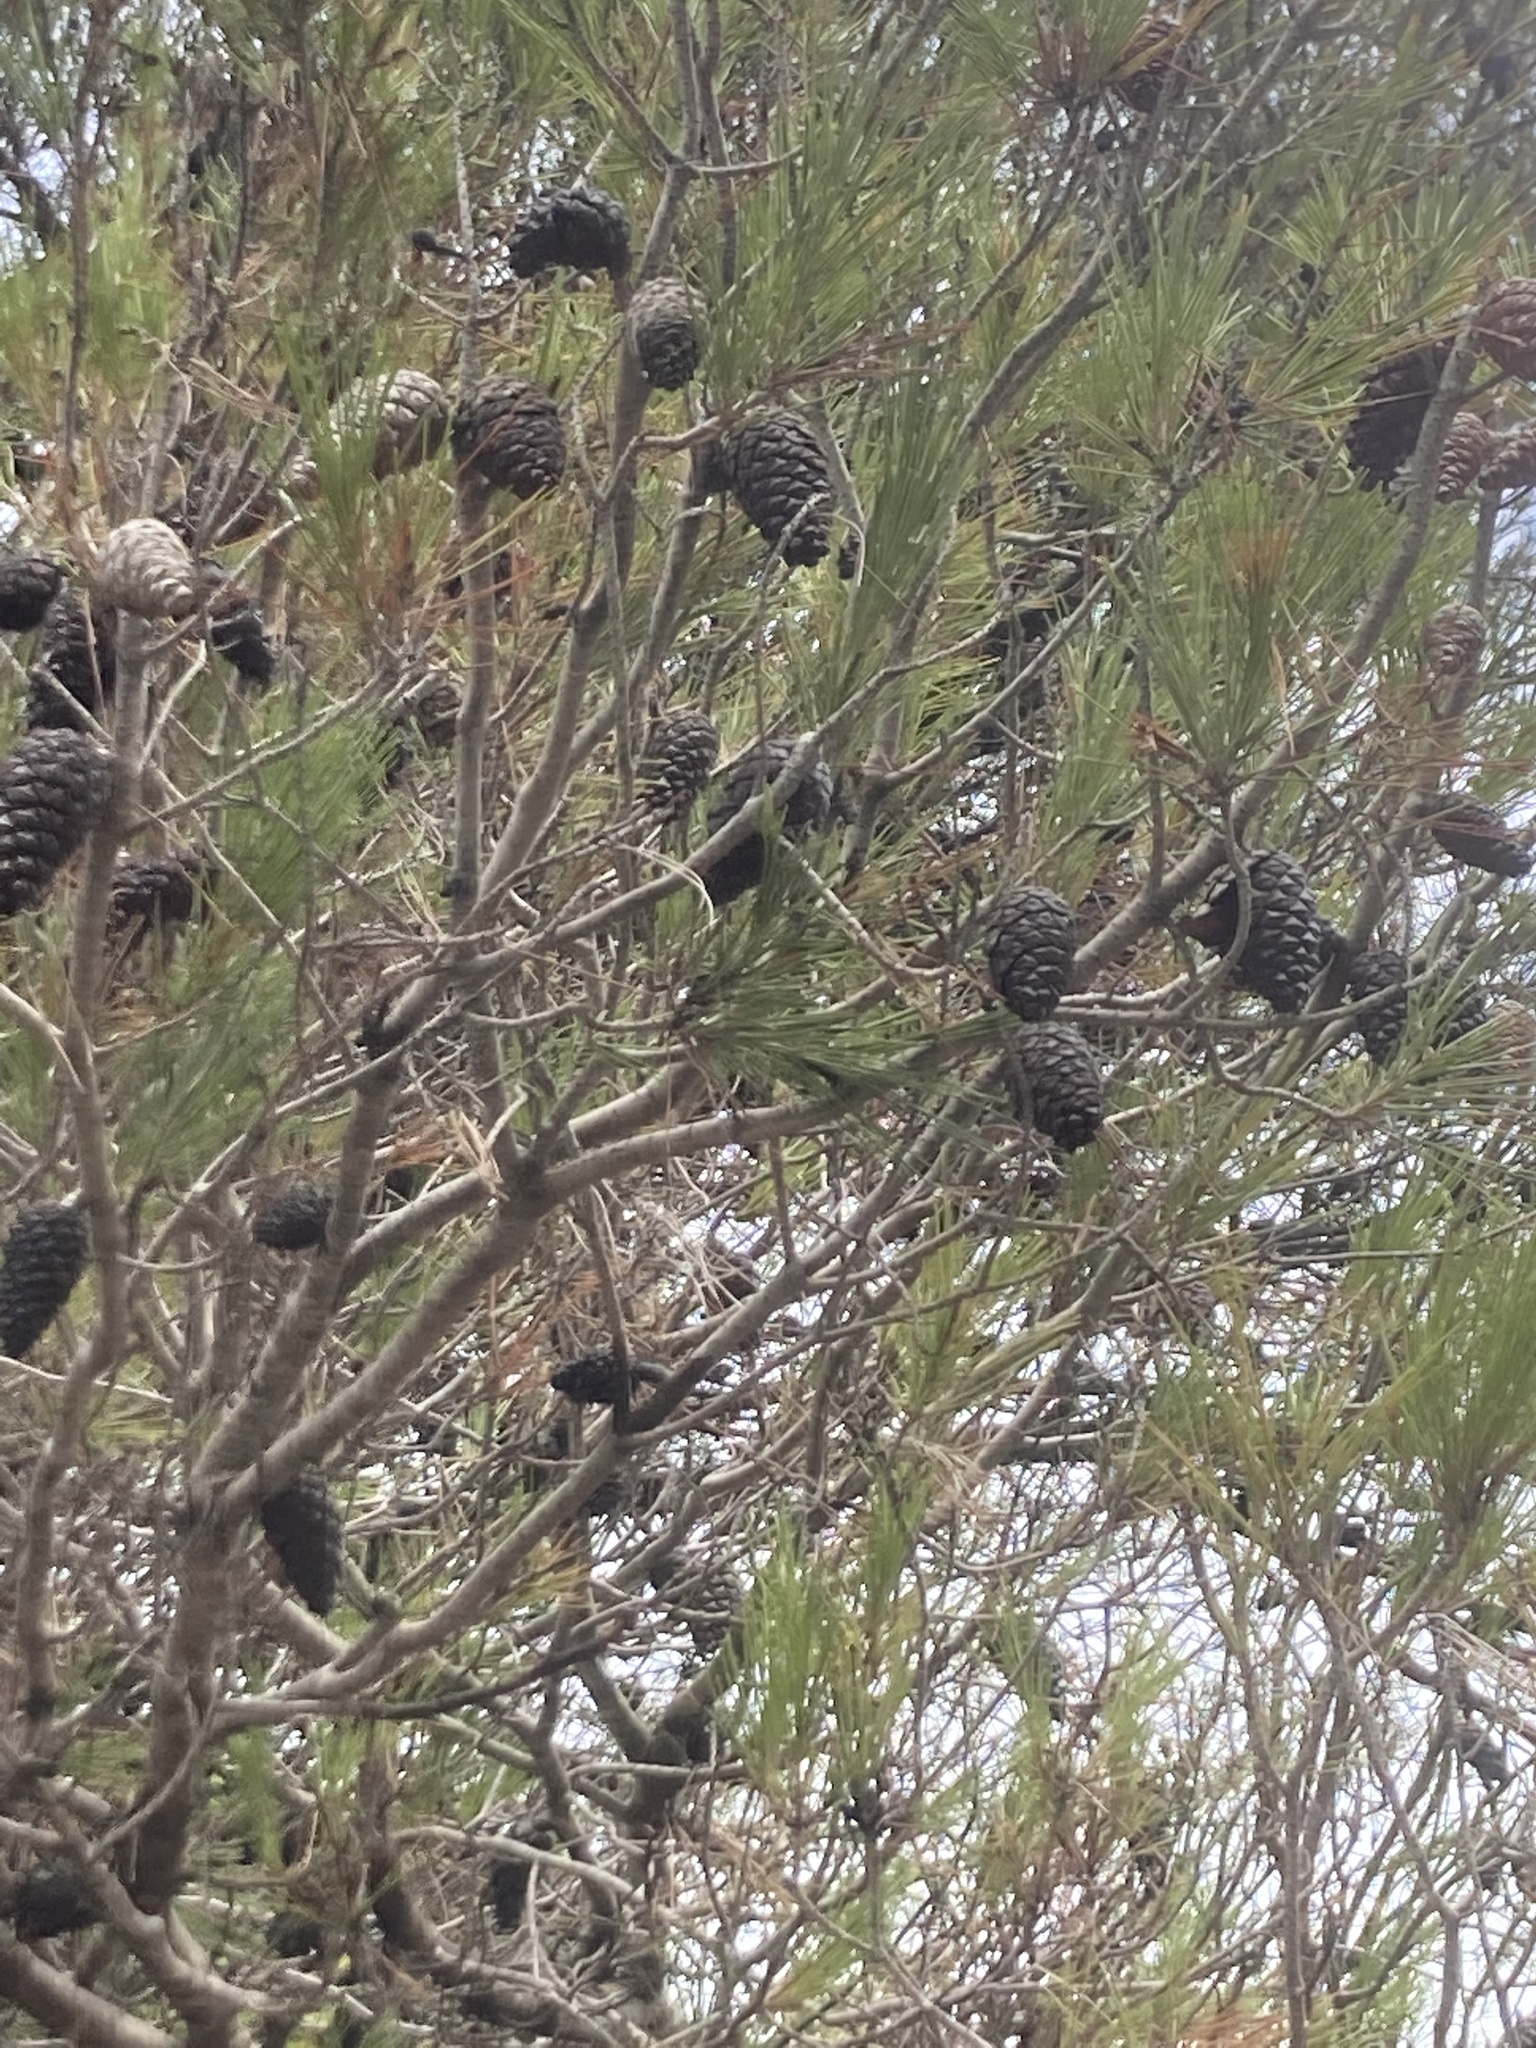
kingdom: Plantae
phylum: Tracheophyta
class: Pinopsida
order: Pinales
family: Pinaceae
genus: Pinus
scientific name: Pinus halepensis
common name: Aleppo pine
